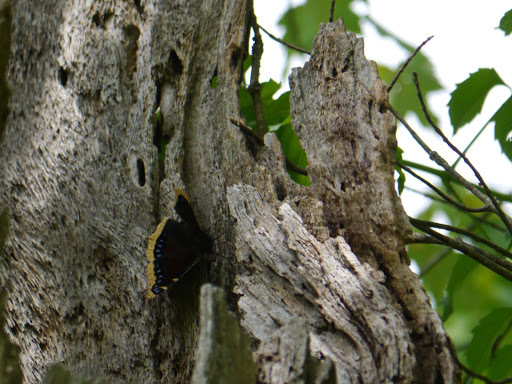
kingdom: Animalia
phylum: Arthropoda
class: Insecta
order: Lepidoptera
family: Nymphalidae
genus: Nymphalis
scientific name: Nymphalis antiopa
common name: Camberwell beauty
